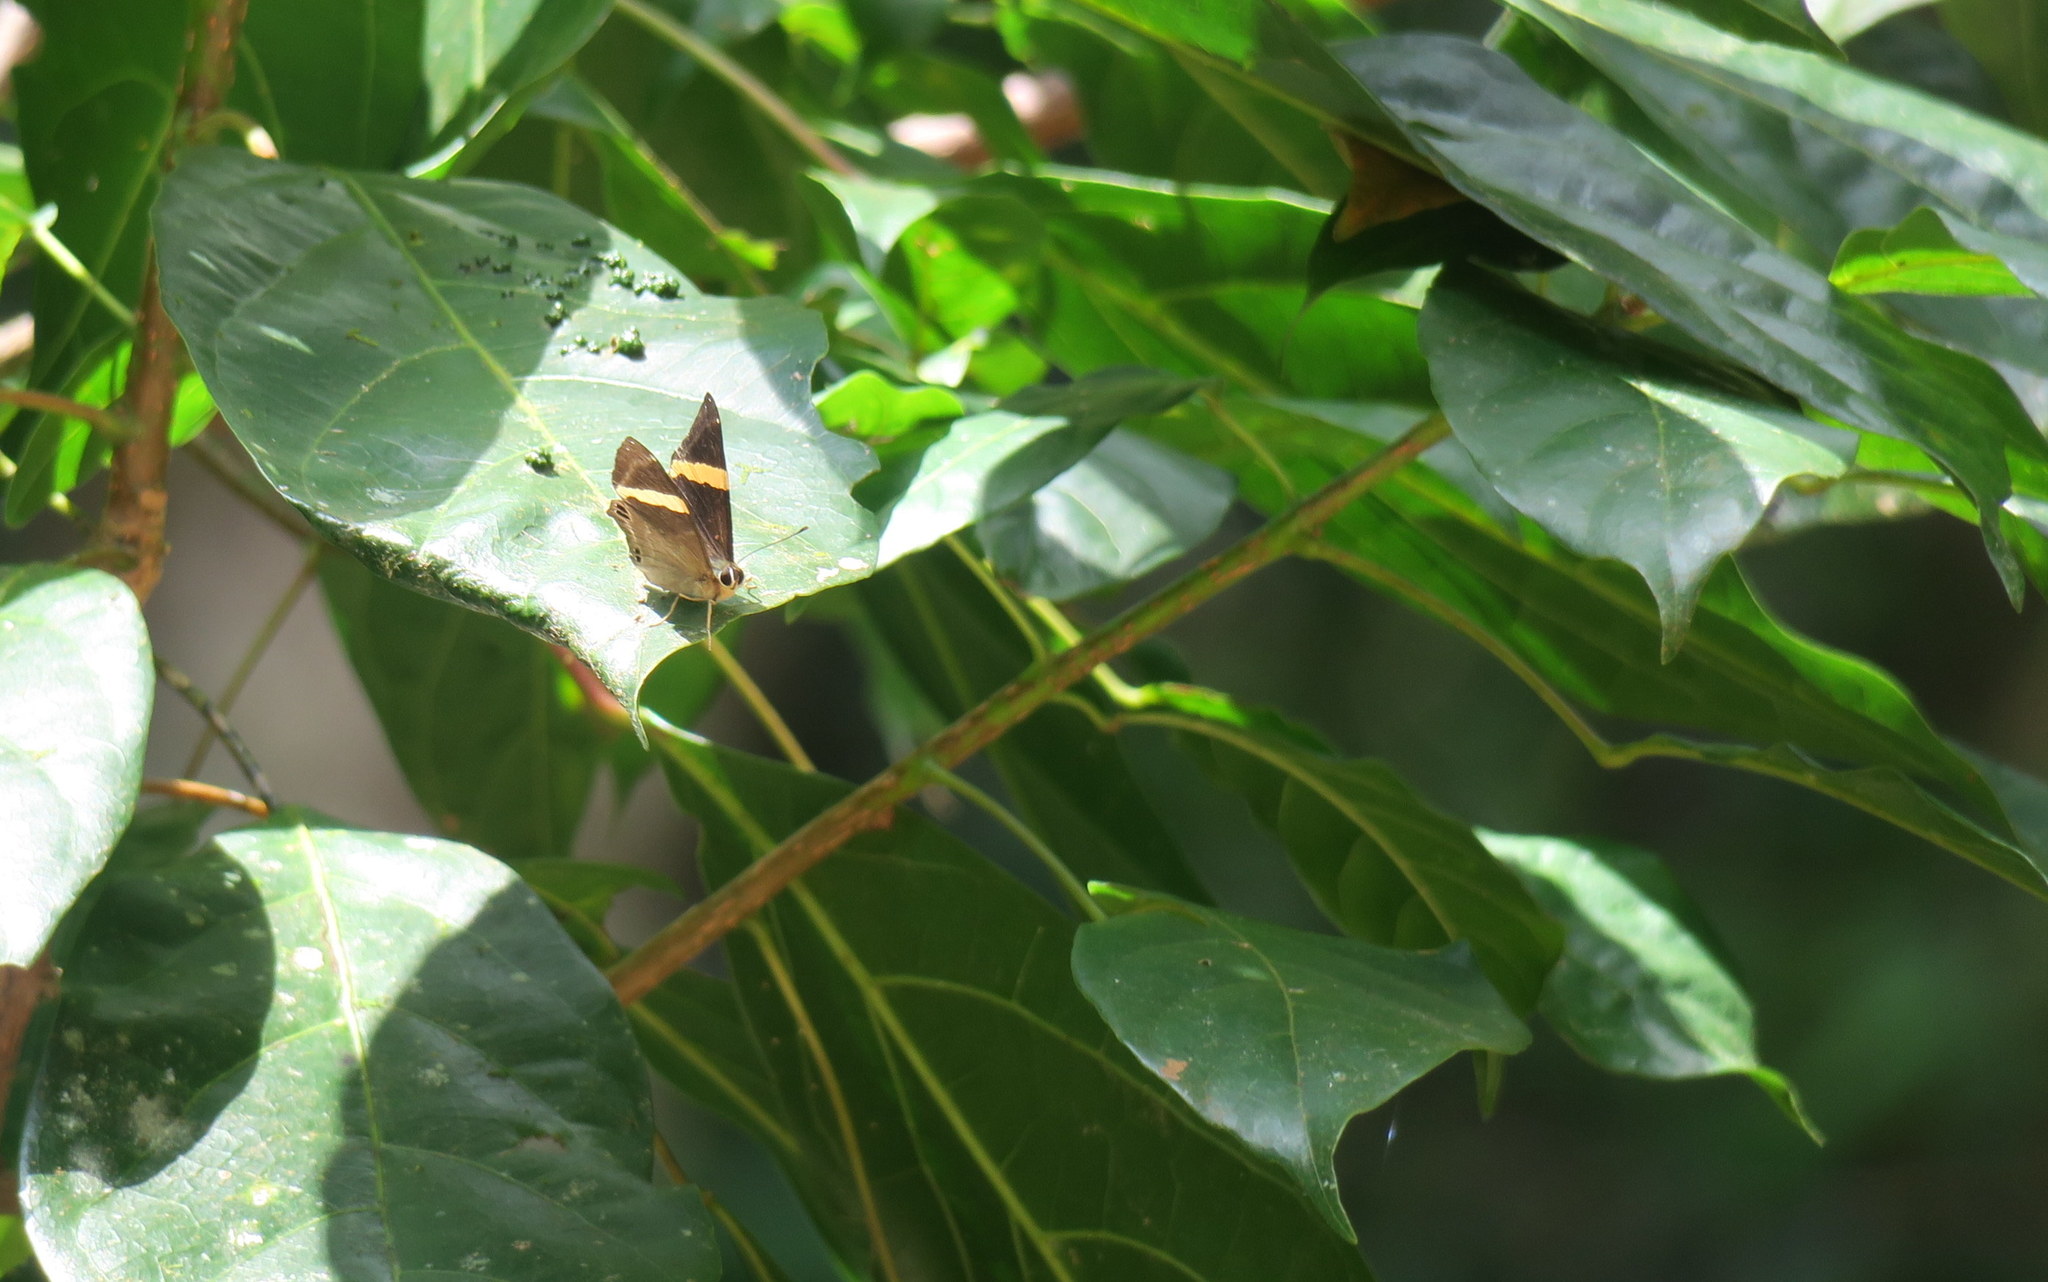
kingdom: Animalia
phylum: Arthropoda
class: Insecta
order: Lepidoptera
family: Lycaenidae
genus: Abisara
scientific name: Abisara fylla
